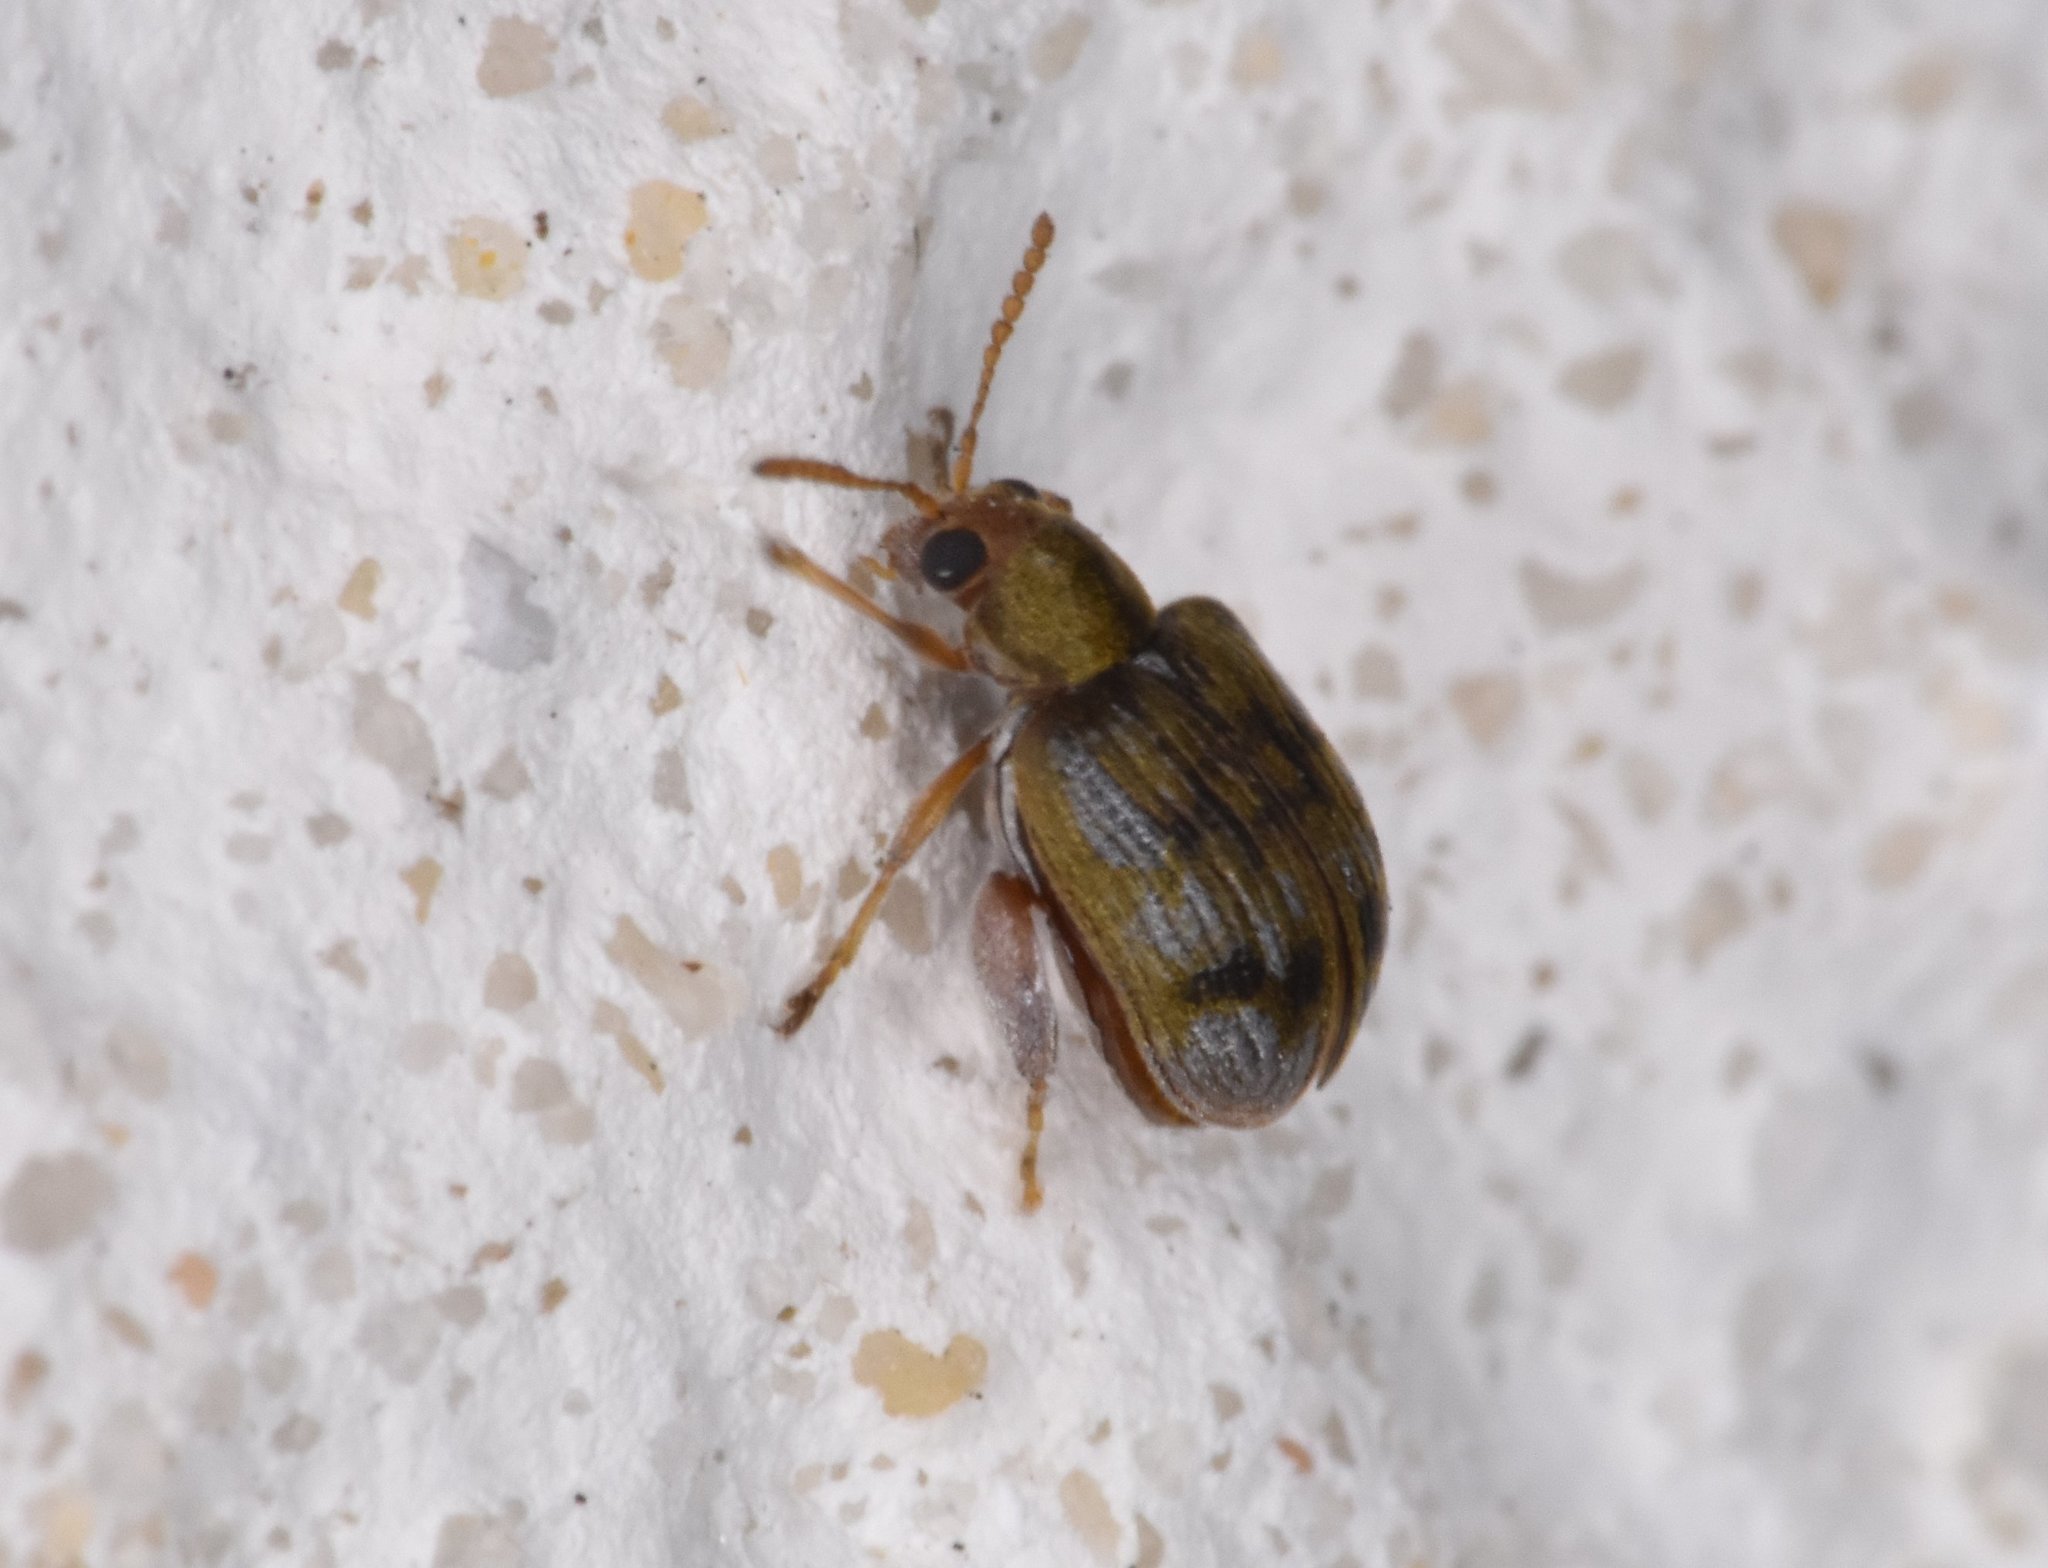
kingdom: Animalia
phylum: Arthropoda
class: Insecta
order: Coleoptera
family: Chrysomelidae
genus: Pseudolampis
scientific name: Pseudolampis guttata
